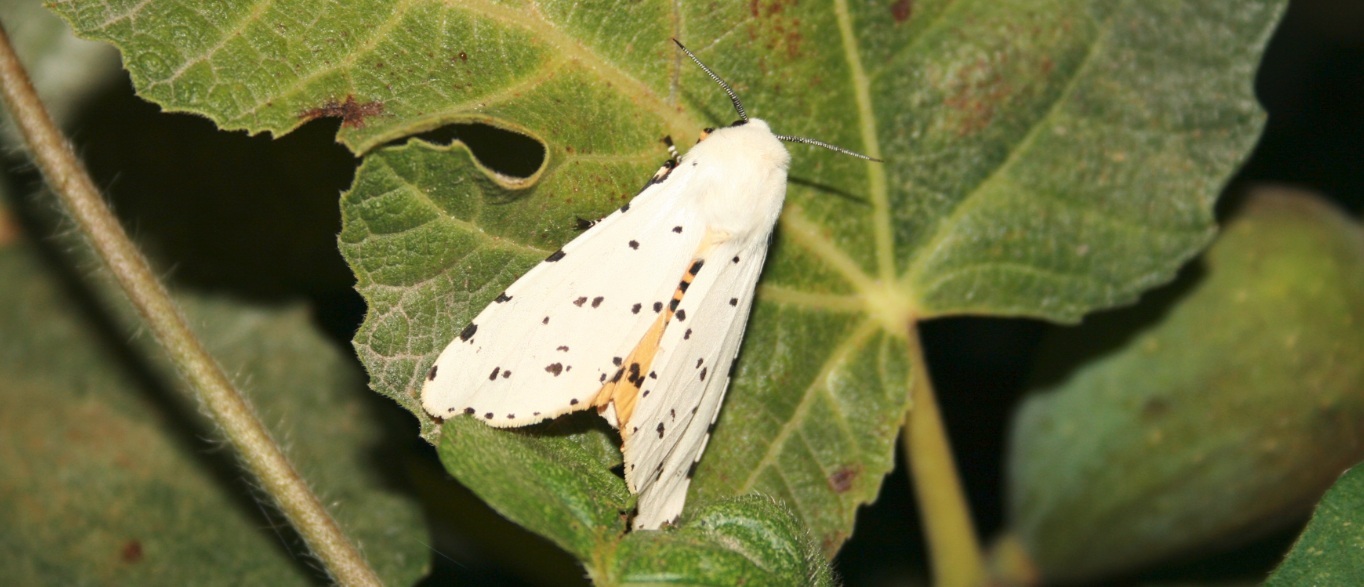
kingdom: Animalia
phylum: Arthropoda
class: Insecta
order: Lepidoptera
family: Erebidae
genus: Estigmene
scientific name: Estigmene acrea
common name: Salt marsh moth
